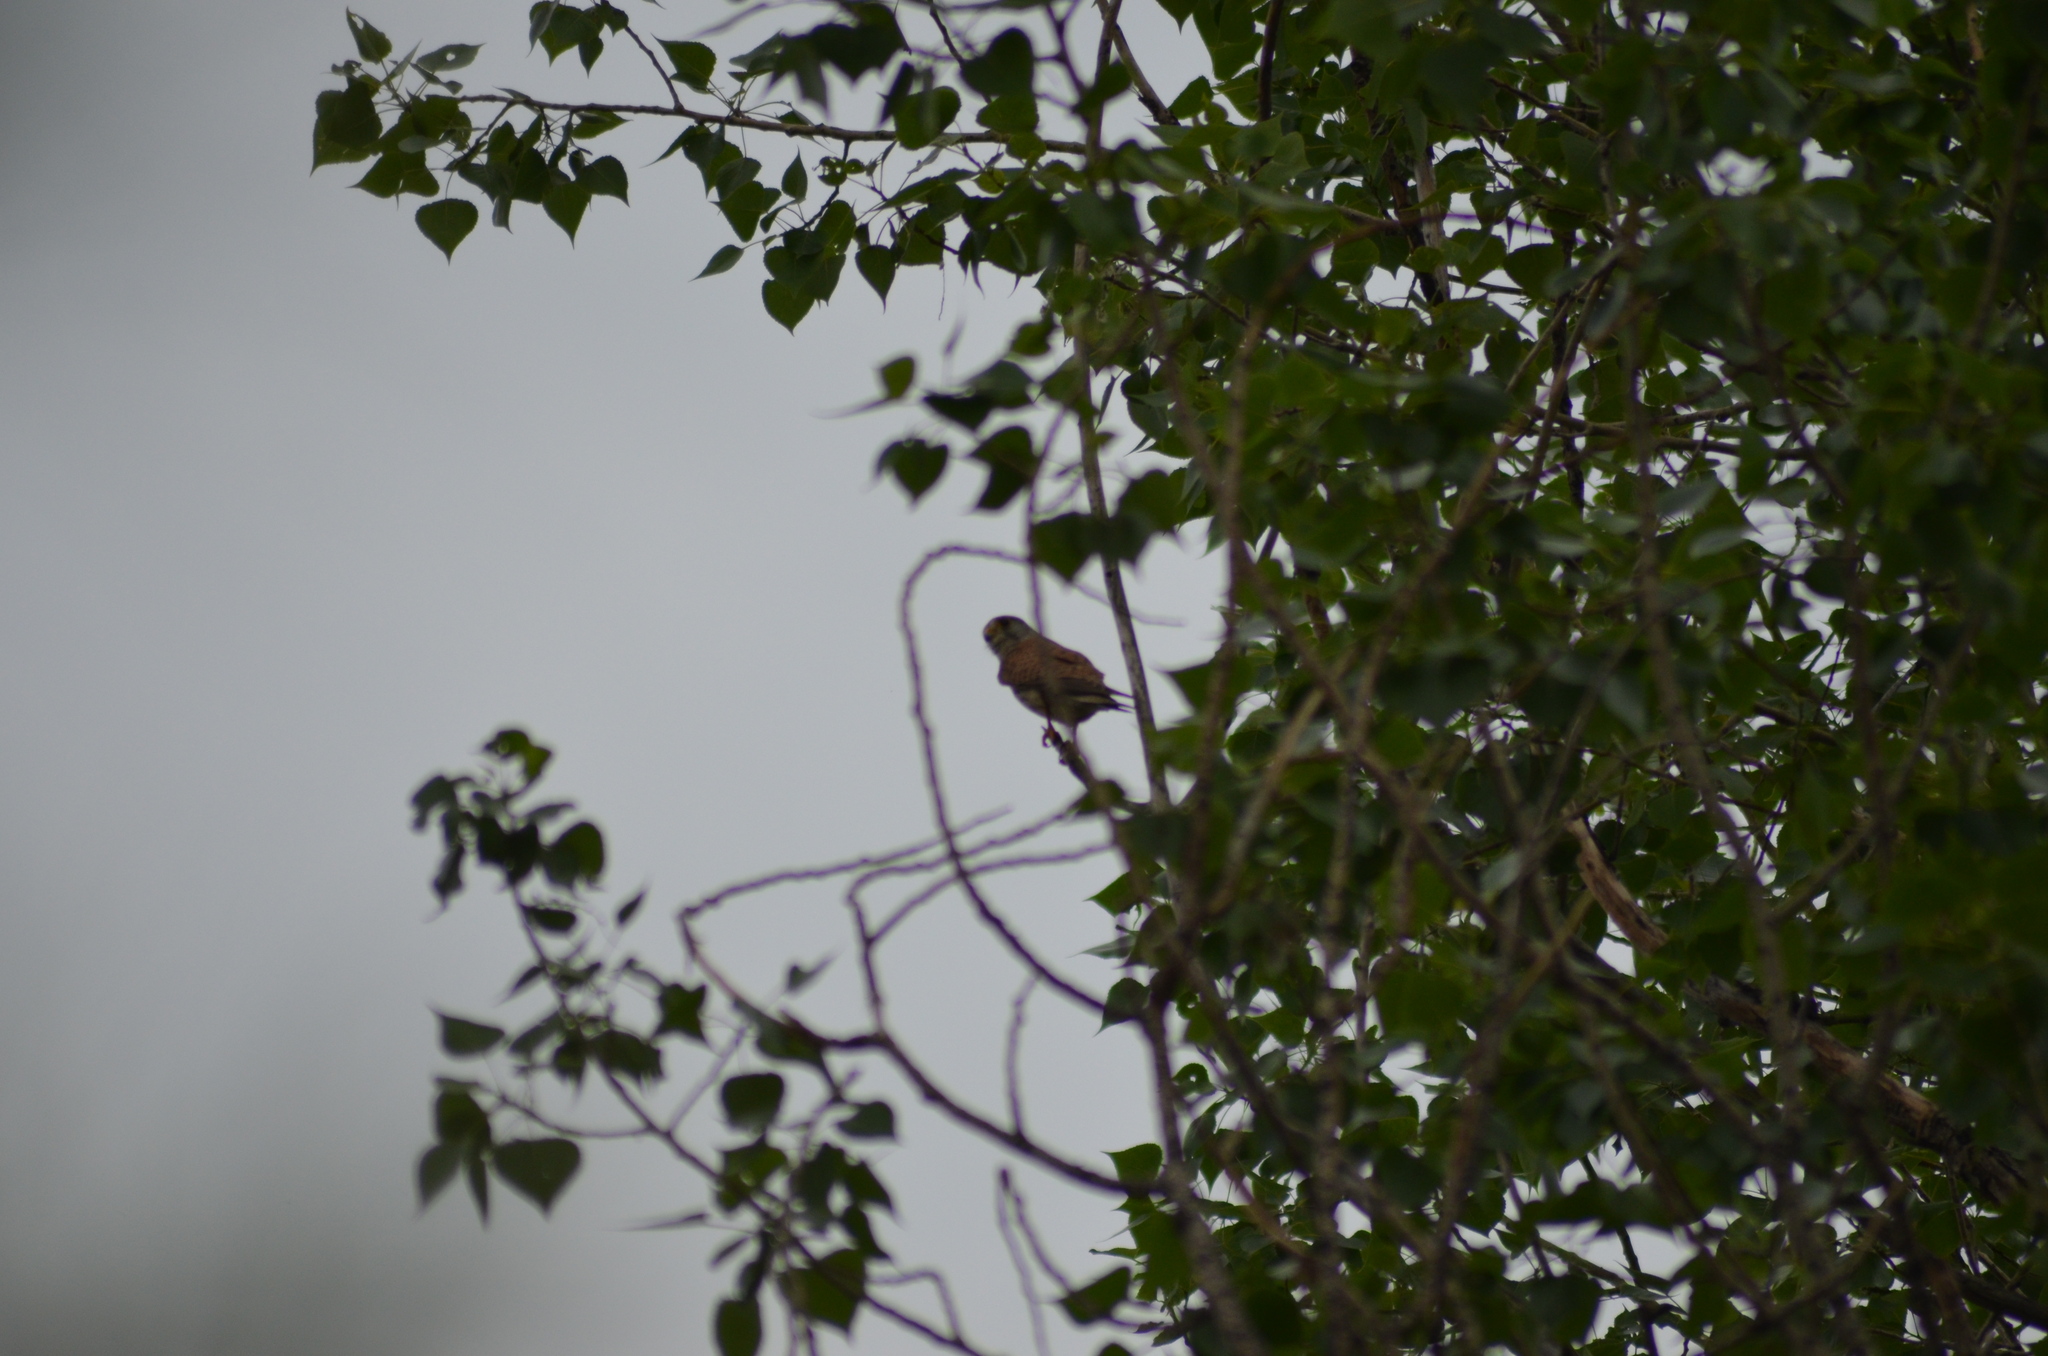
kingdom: Animalia
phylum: Chordata
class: Aves
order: Falconiformes
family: Falconidae
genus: Falco
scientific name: Falco tinnunculus
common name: Common kestrel
